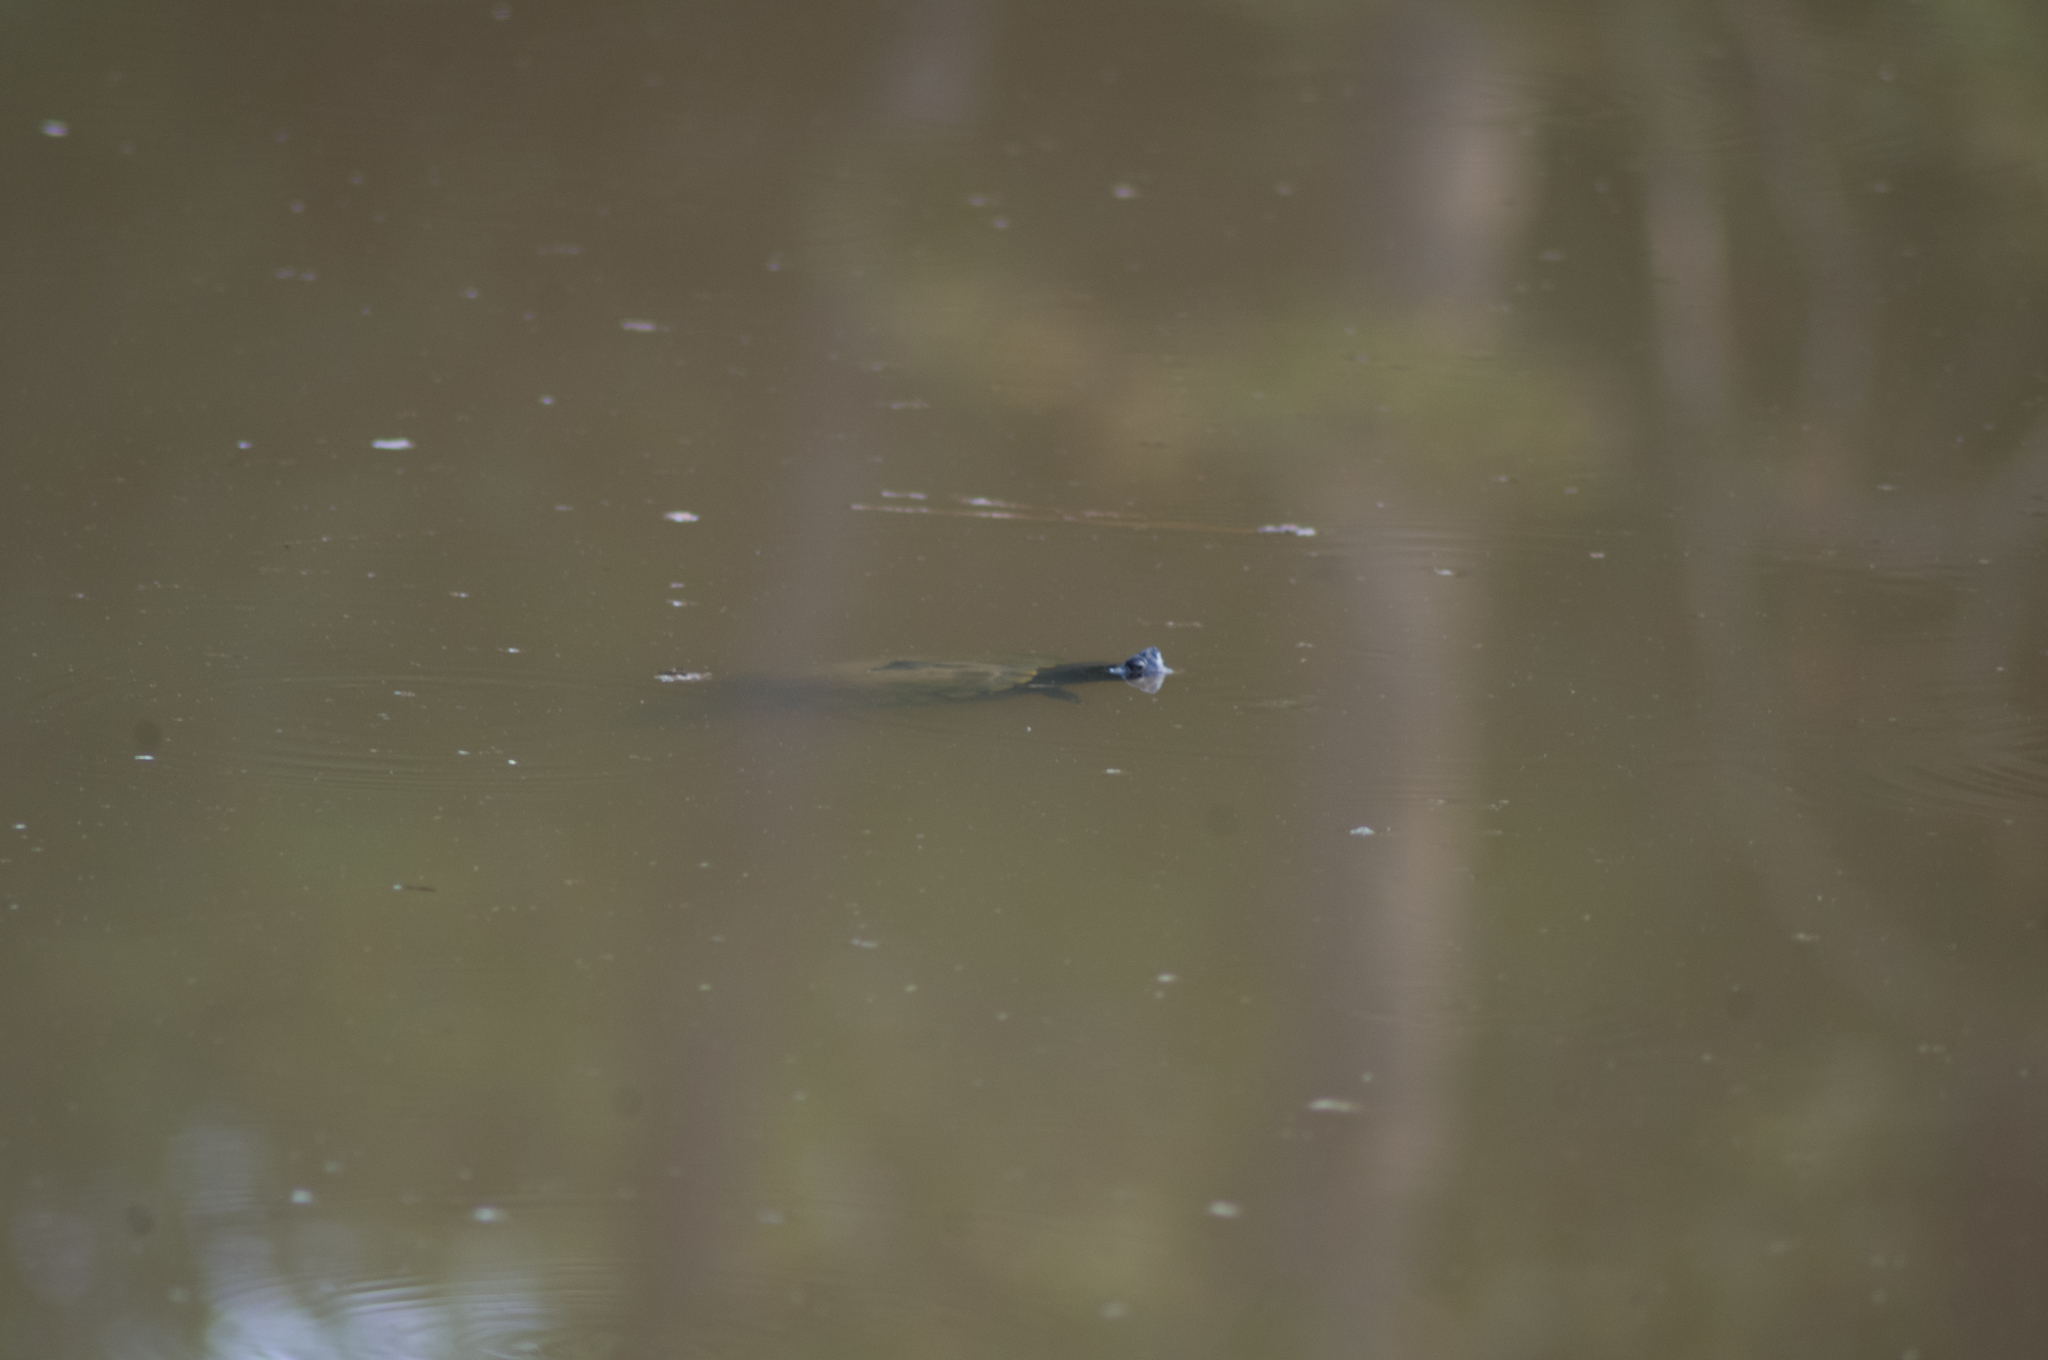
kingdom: Animalia
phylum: Chordata
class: Testudines
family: Emydidae
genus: Trachemys
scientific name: Trachemys scripta
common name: Slider
